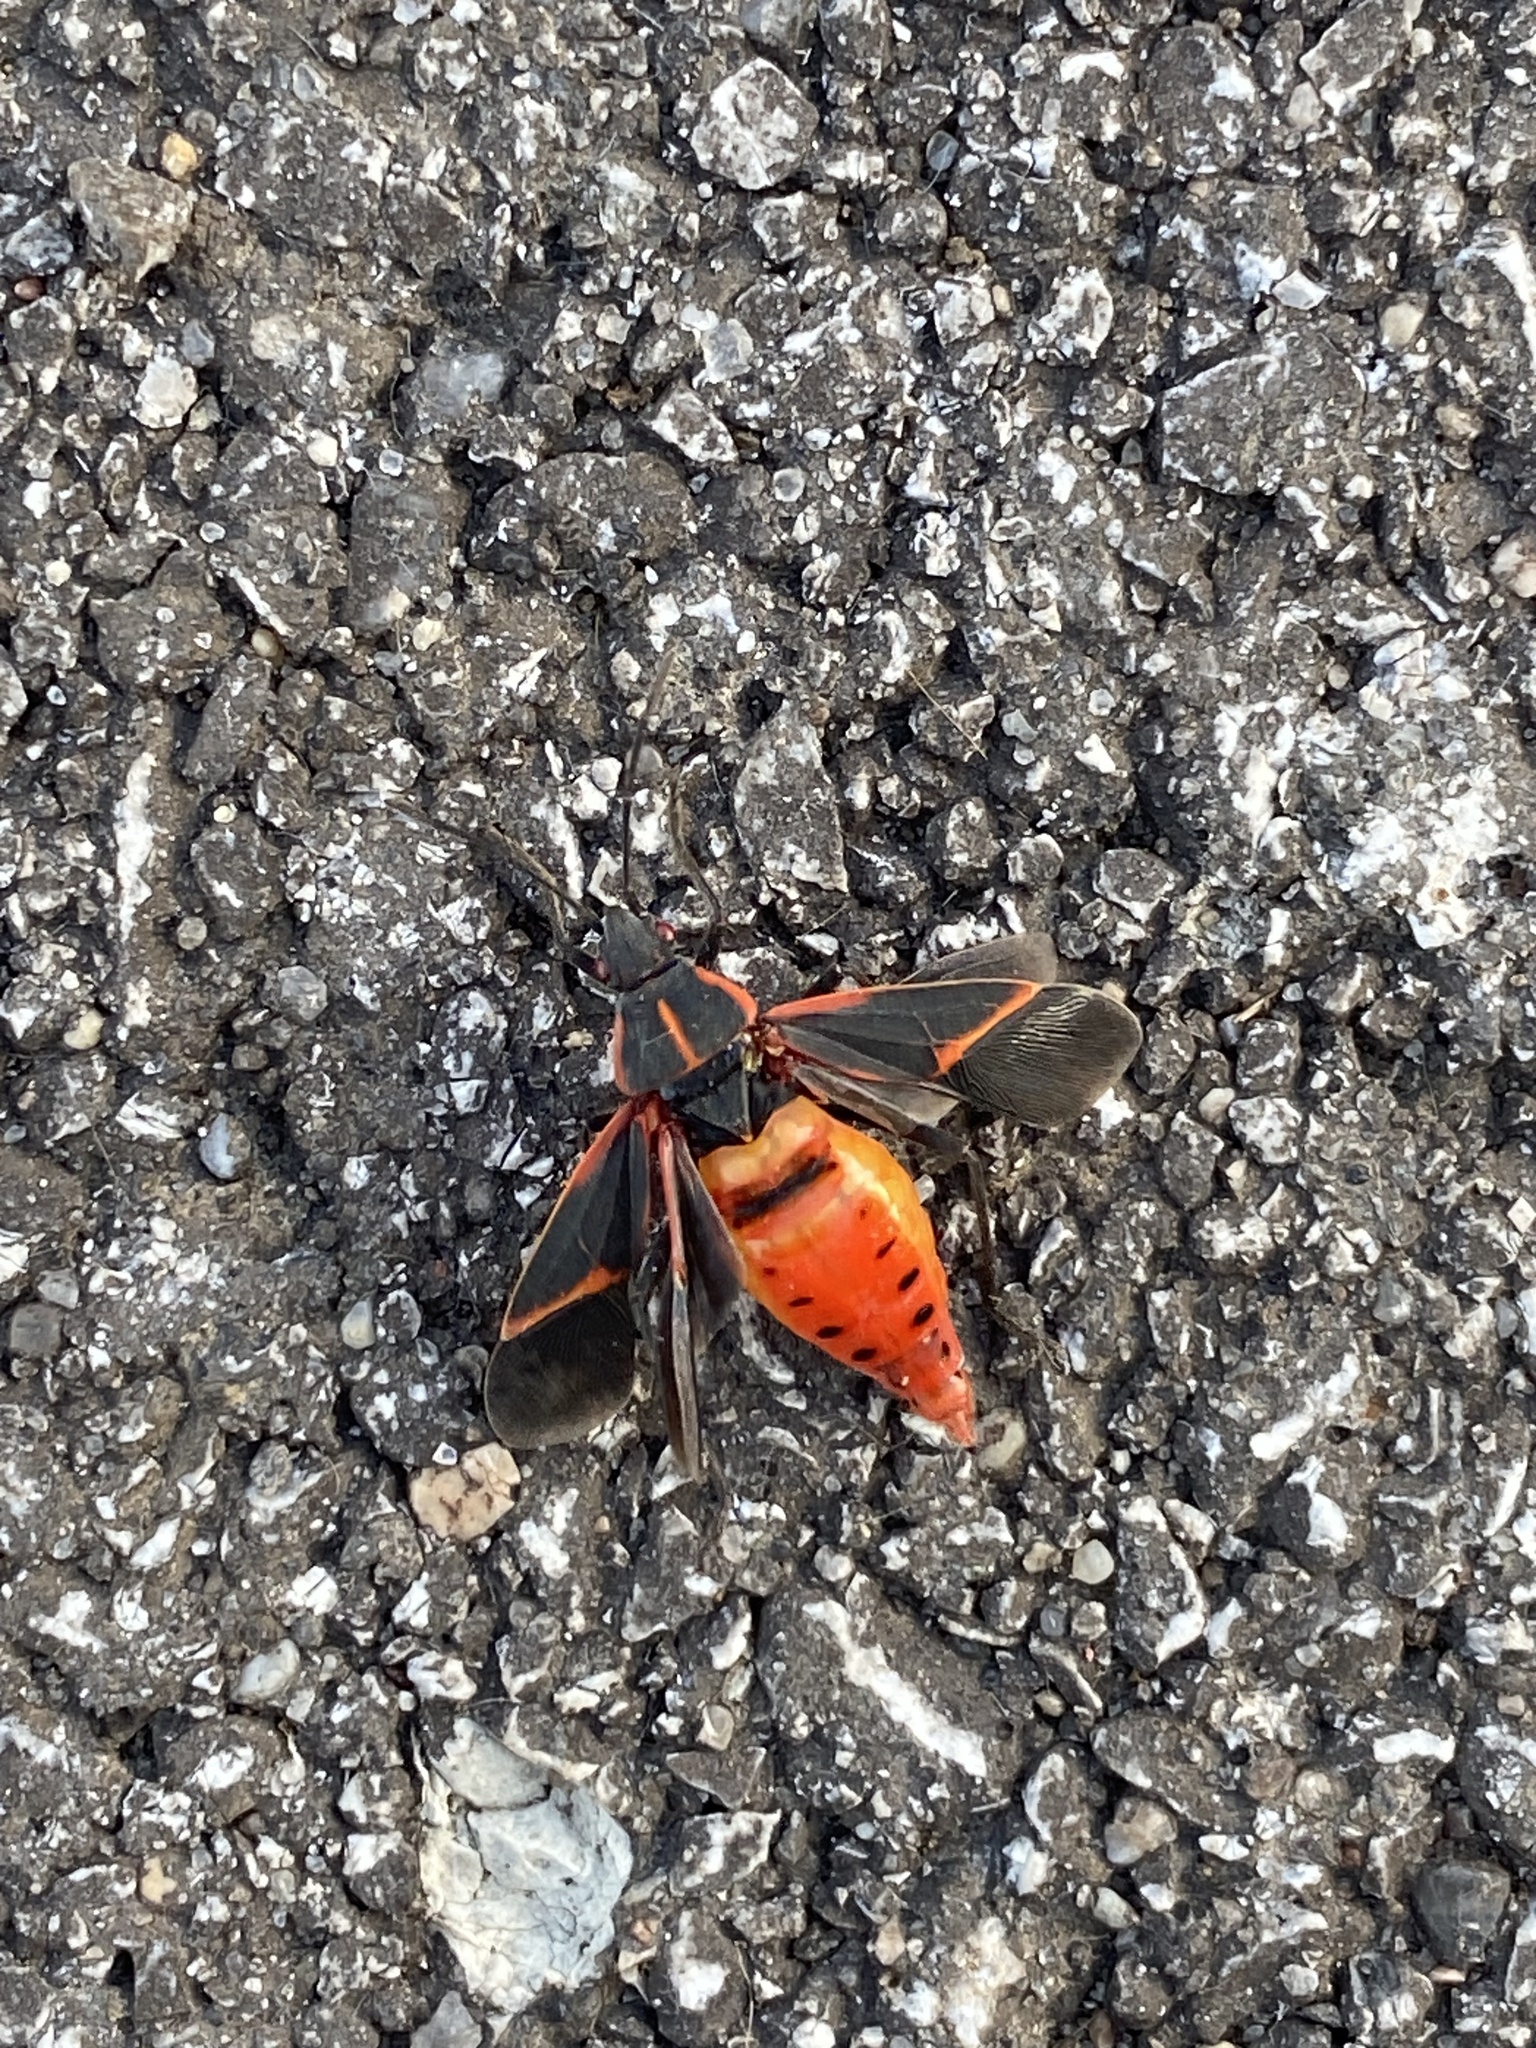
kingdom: Animalia
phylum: Arthropoda
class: Insecta
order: Hemiptera
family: Rhopalidae
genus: Boisea
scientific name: Boisea trivittata
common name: Boxelder bug
